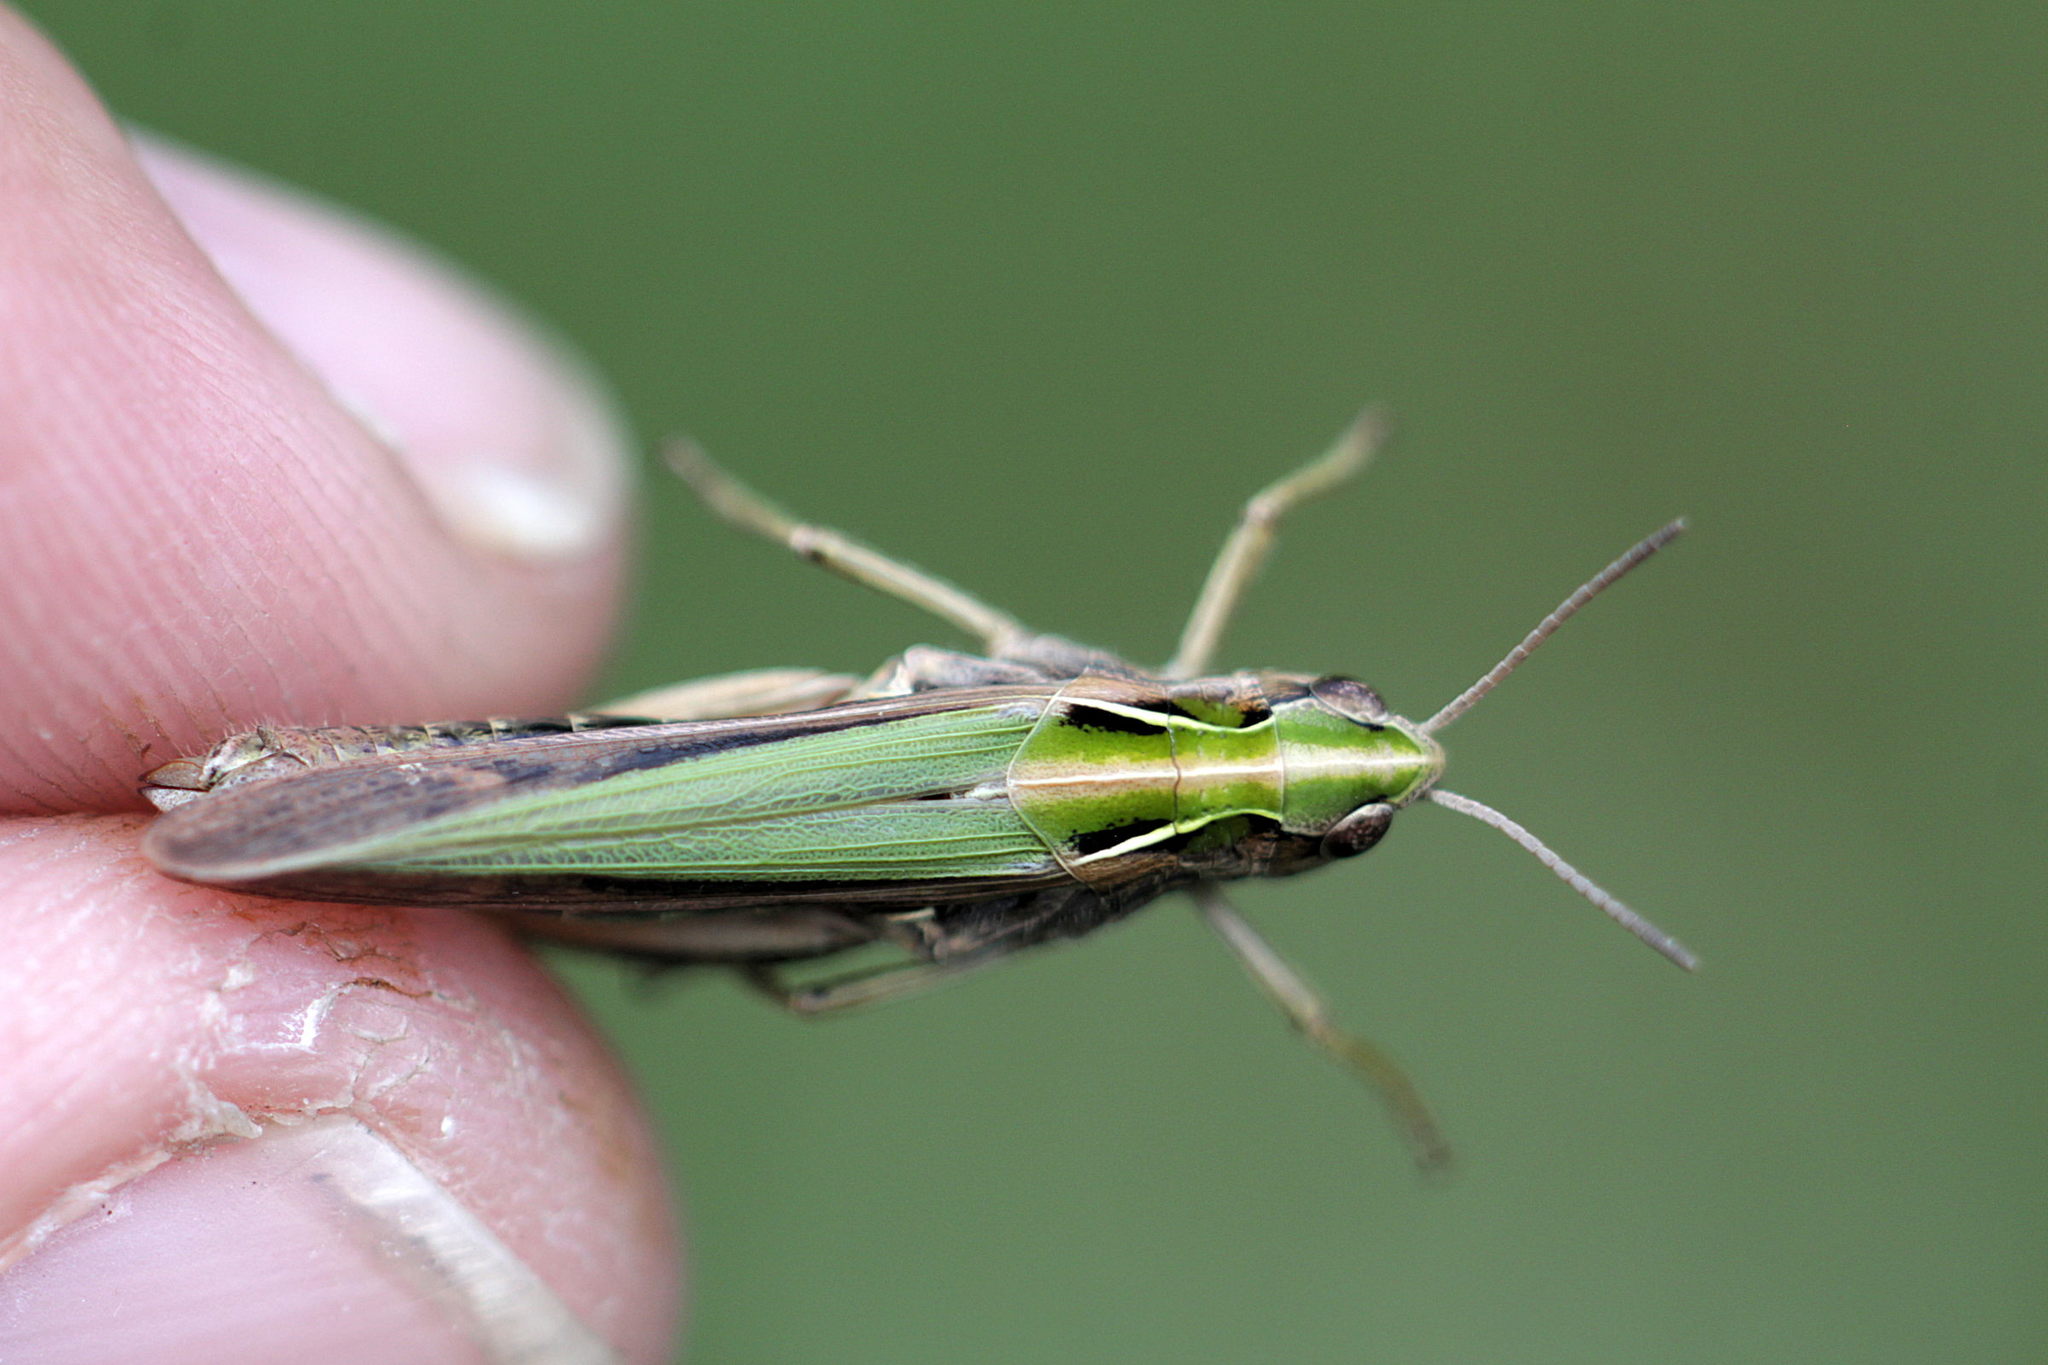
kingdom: Animalia
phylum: Arthropoda
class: Insecta
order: Orthoptera
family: Acrididae
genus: Omocestus
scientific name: Omocestus viridulus
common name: Common green grasshopper
